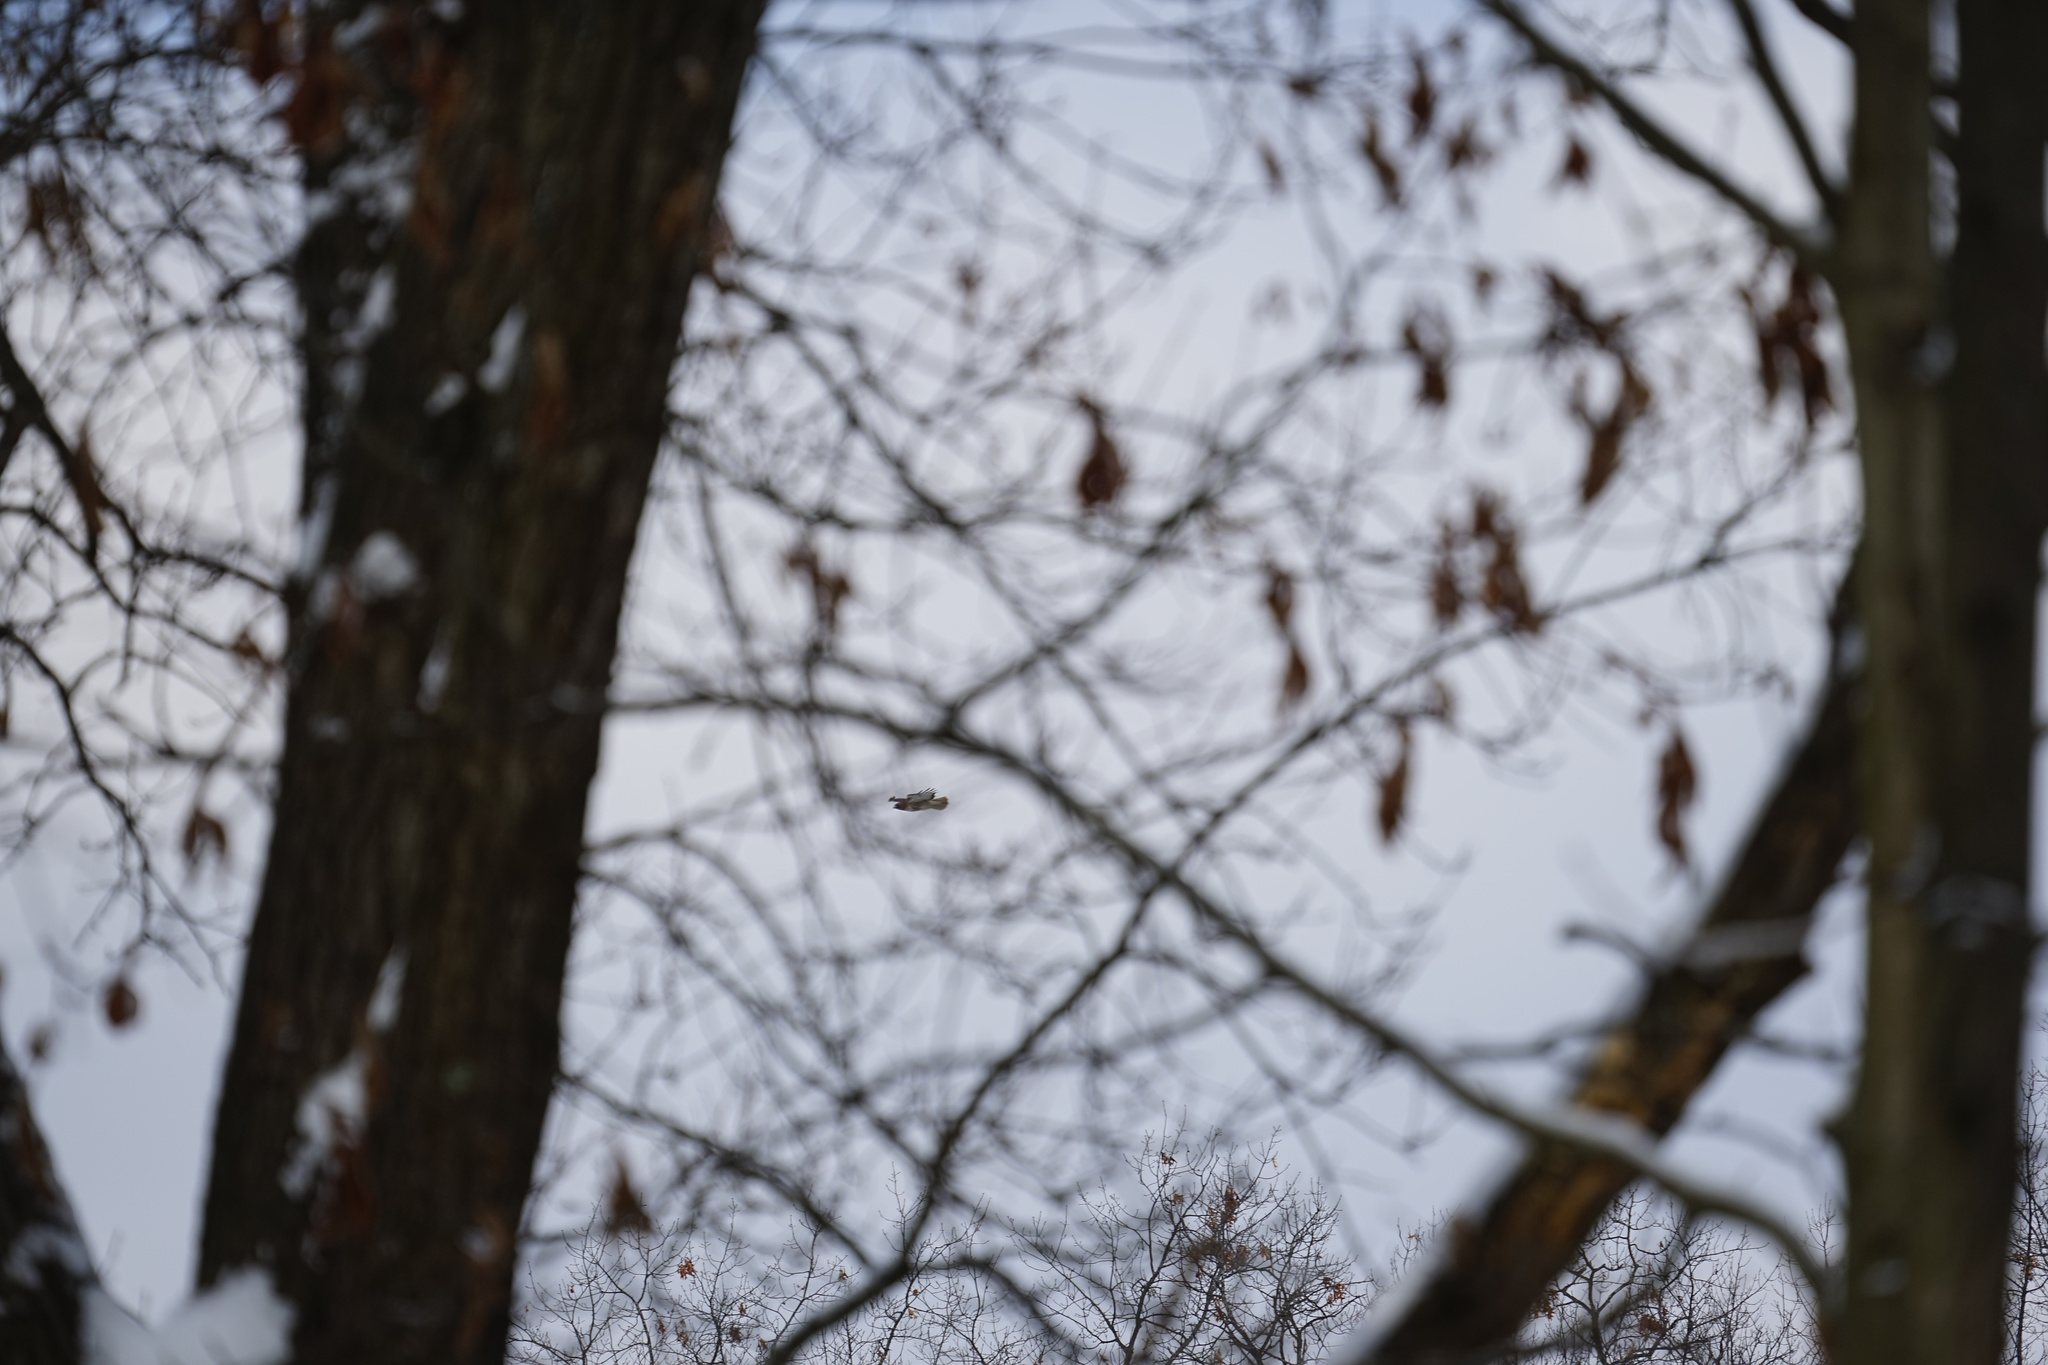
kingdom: Animalia
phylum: Chordata
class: Aves
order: Accipitriformes
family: Accipitridae
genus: Buteo
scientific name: Buteo jamaicensis
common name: Red-tailed hawk
